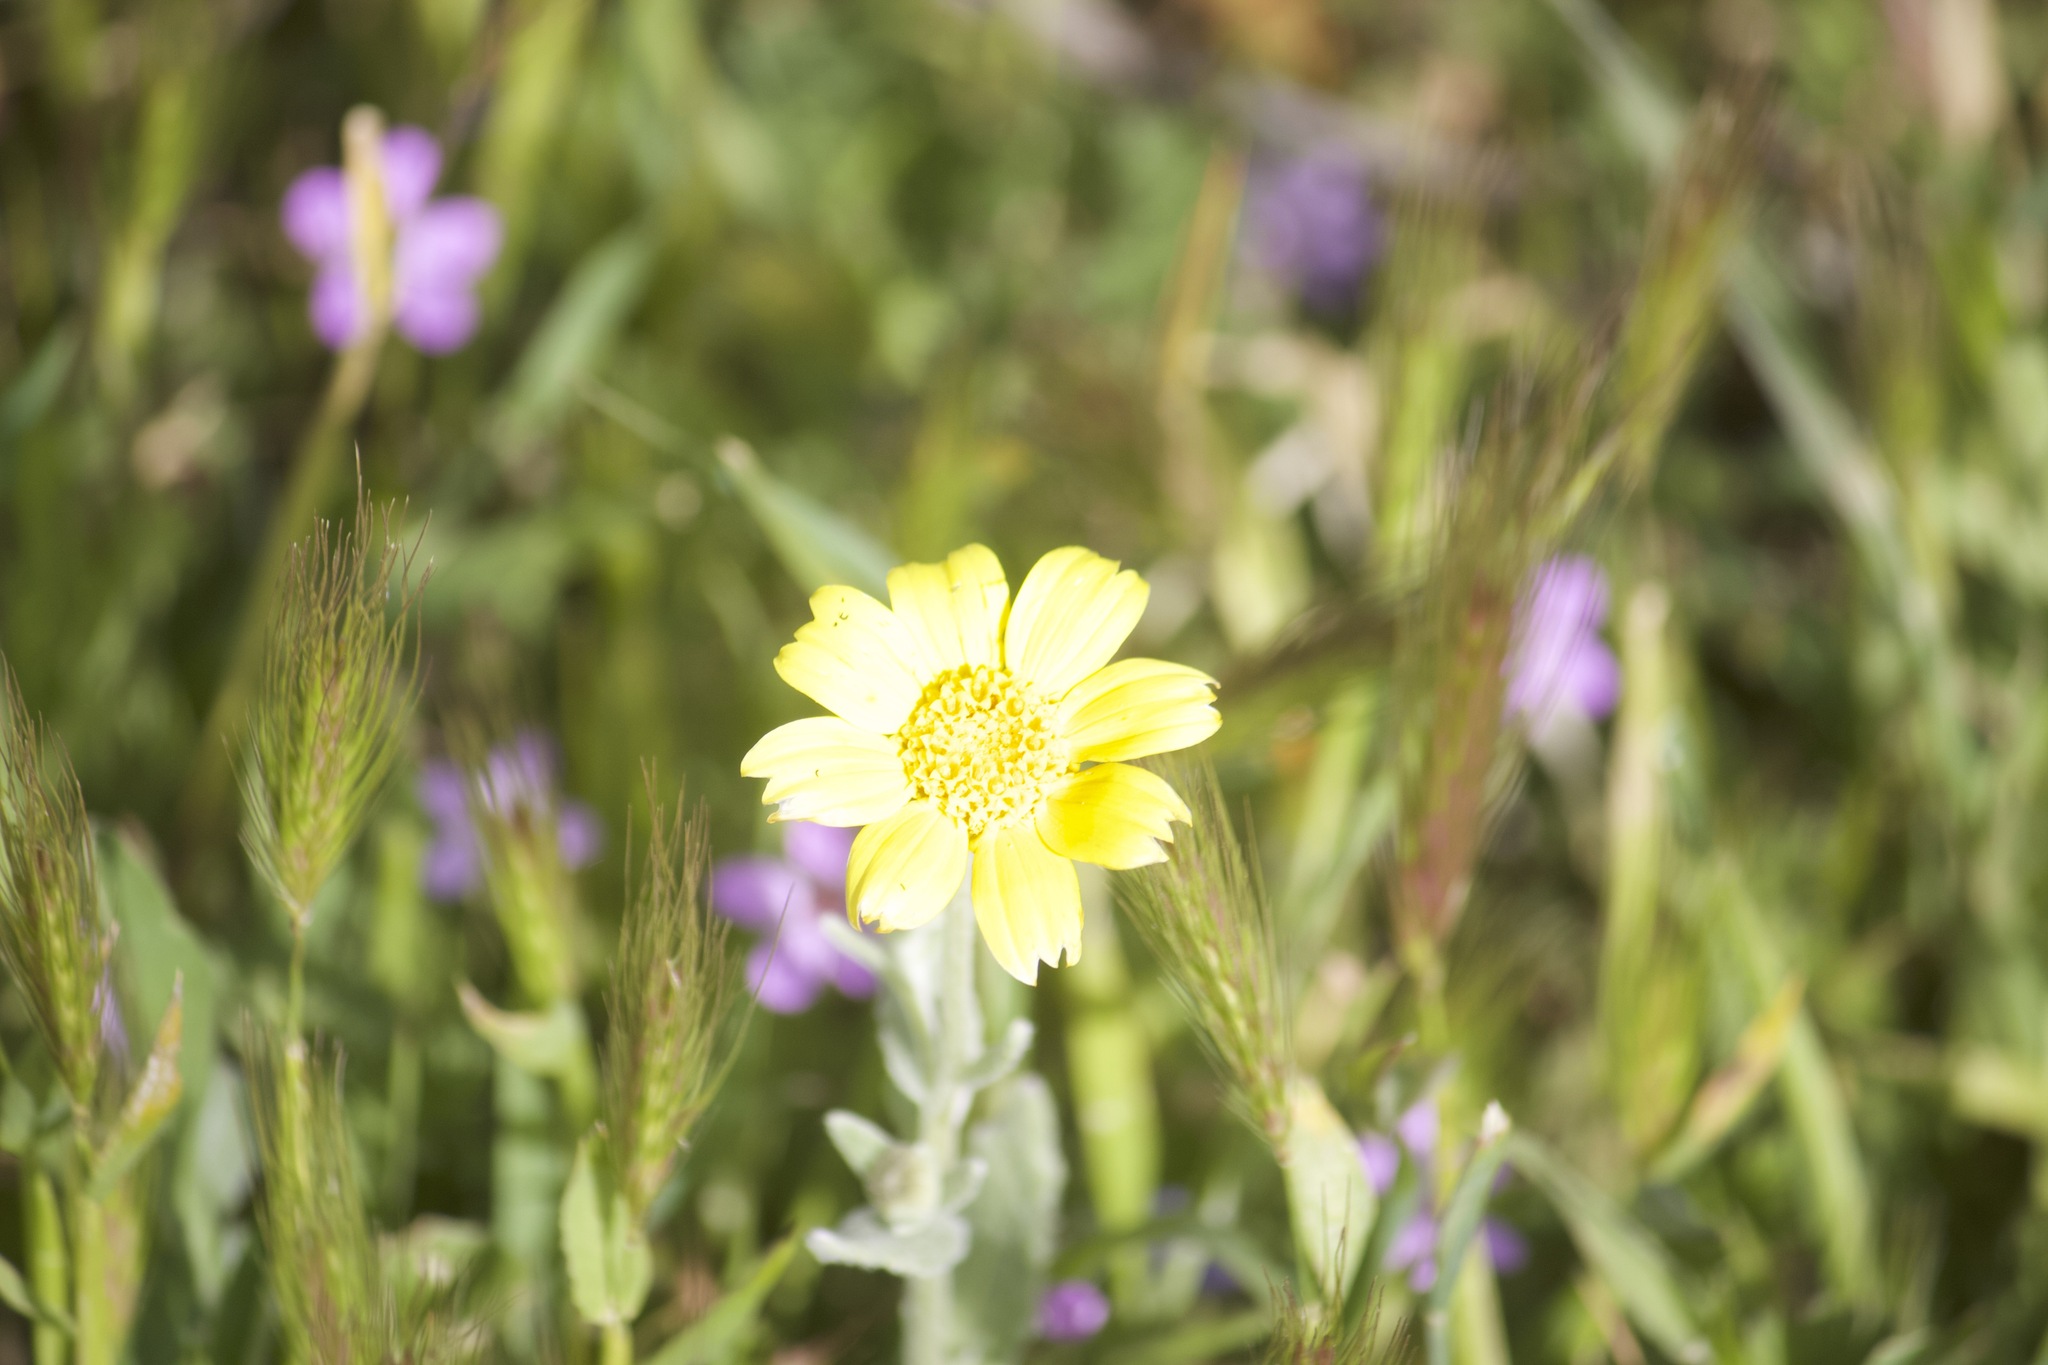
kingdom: Plantae
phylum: Tracheophyta
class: Magnoliopsida
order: Asterales
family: Asteraceae
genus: Monolopia
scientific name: Monolopia lanceolata
